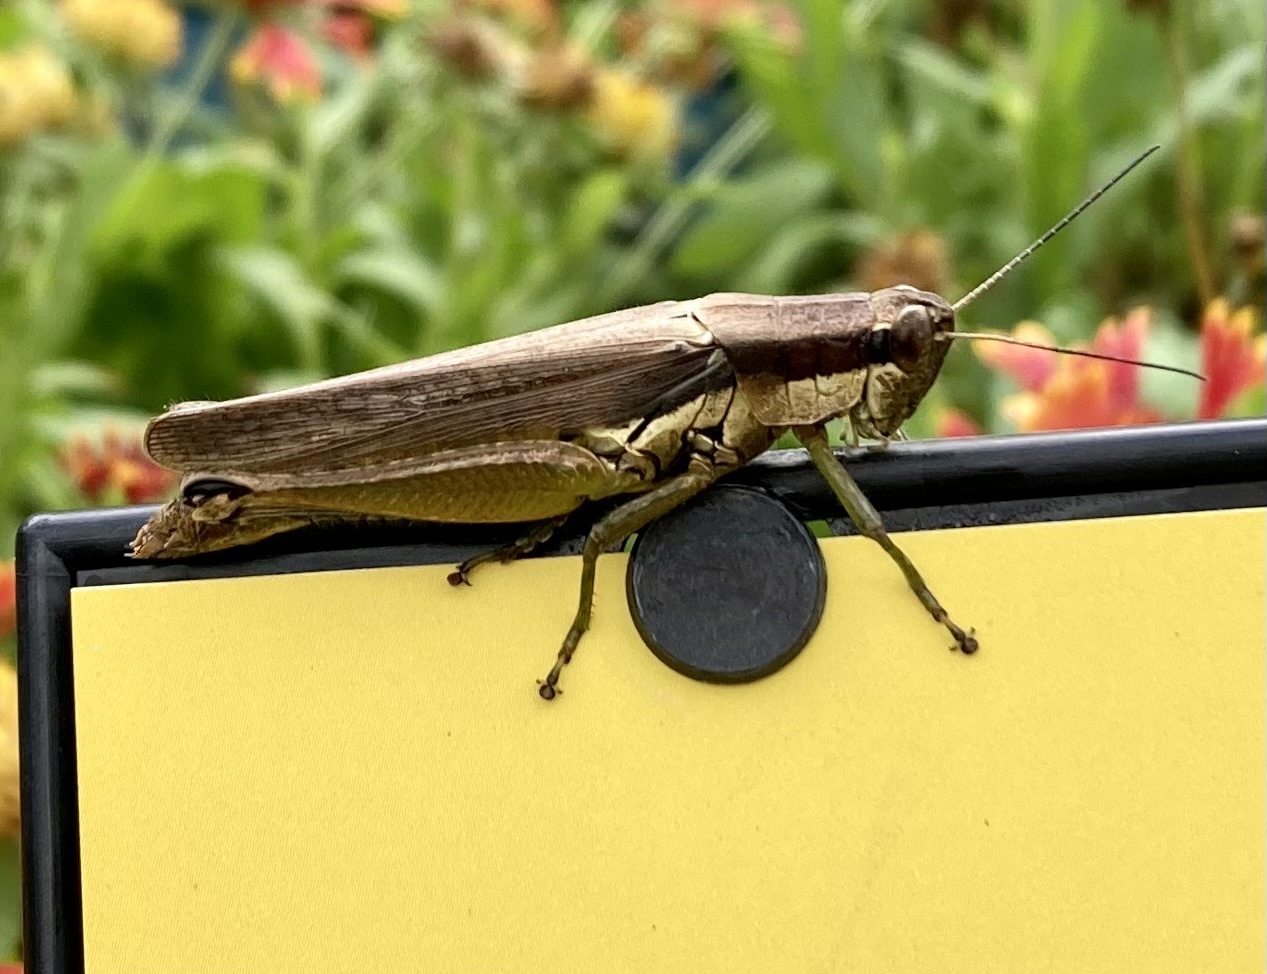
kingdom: Animalia
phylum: Arthropoda
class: Insecta
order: Orthoptera
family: Acrididae
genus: Paroxya
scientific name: Paroxya clavuligera
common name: Olive-green swamp grasshopper
